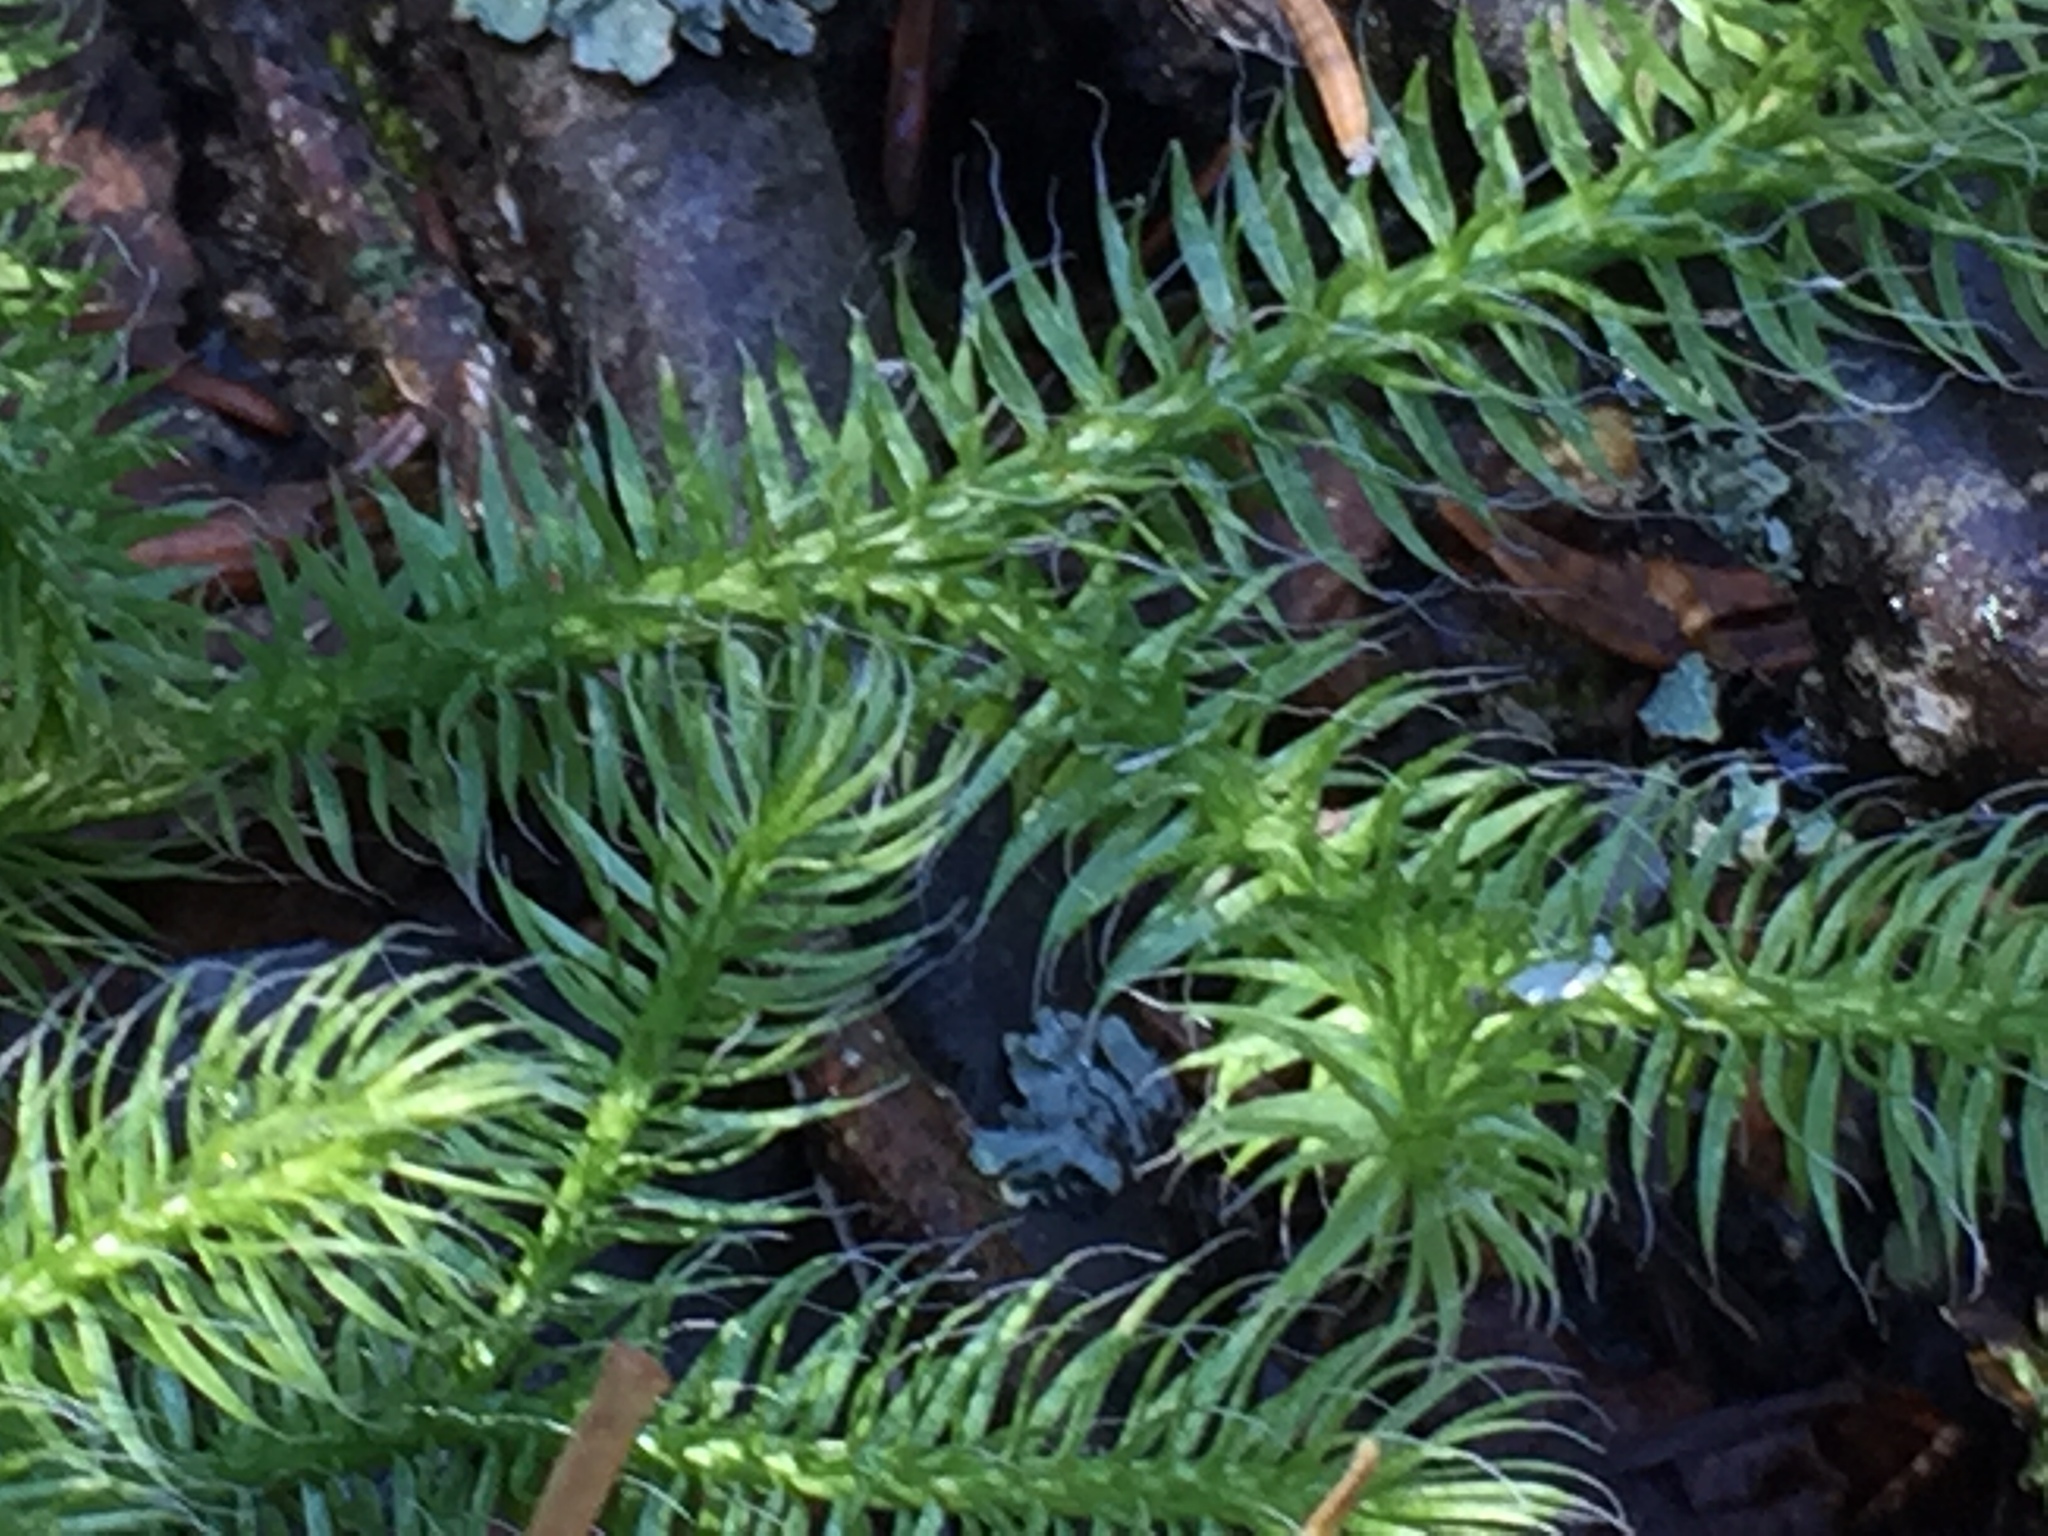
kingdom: Plantae
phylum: Tracheophyta
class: Lycopodiopsida
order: Lycopodiales
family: Lycopodiaceae
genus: Lycopodium
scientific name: Lycopodium clavatum
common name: Stag's-horn clubmoss
